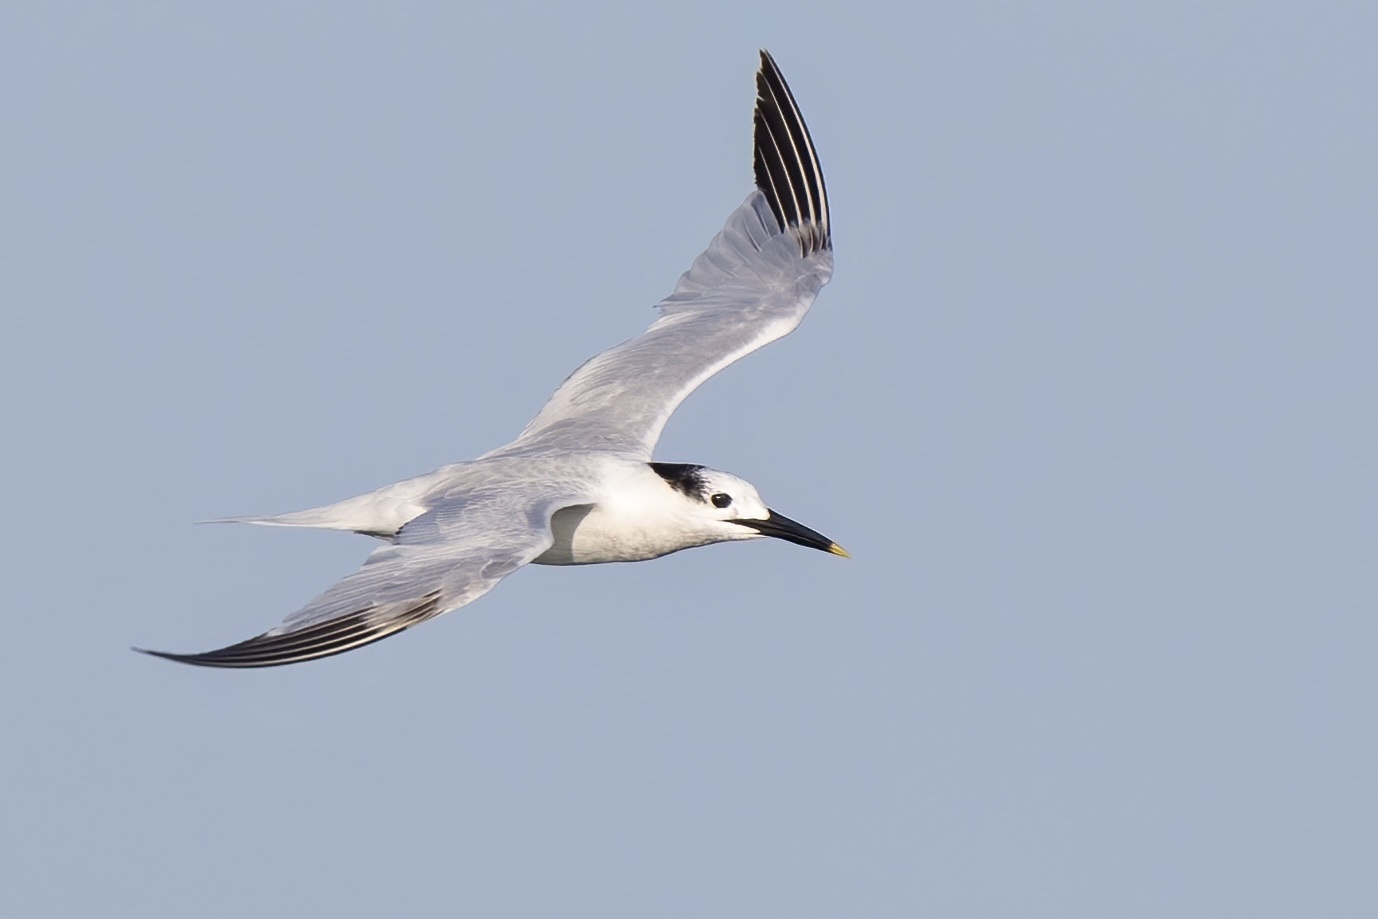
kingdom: Animalia
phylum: Chordata
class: Aves
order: Charadriiformes
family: Laridae
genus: Thalasseus
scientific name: Thalasseus sandvicensis
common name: Sandwich tern
